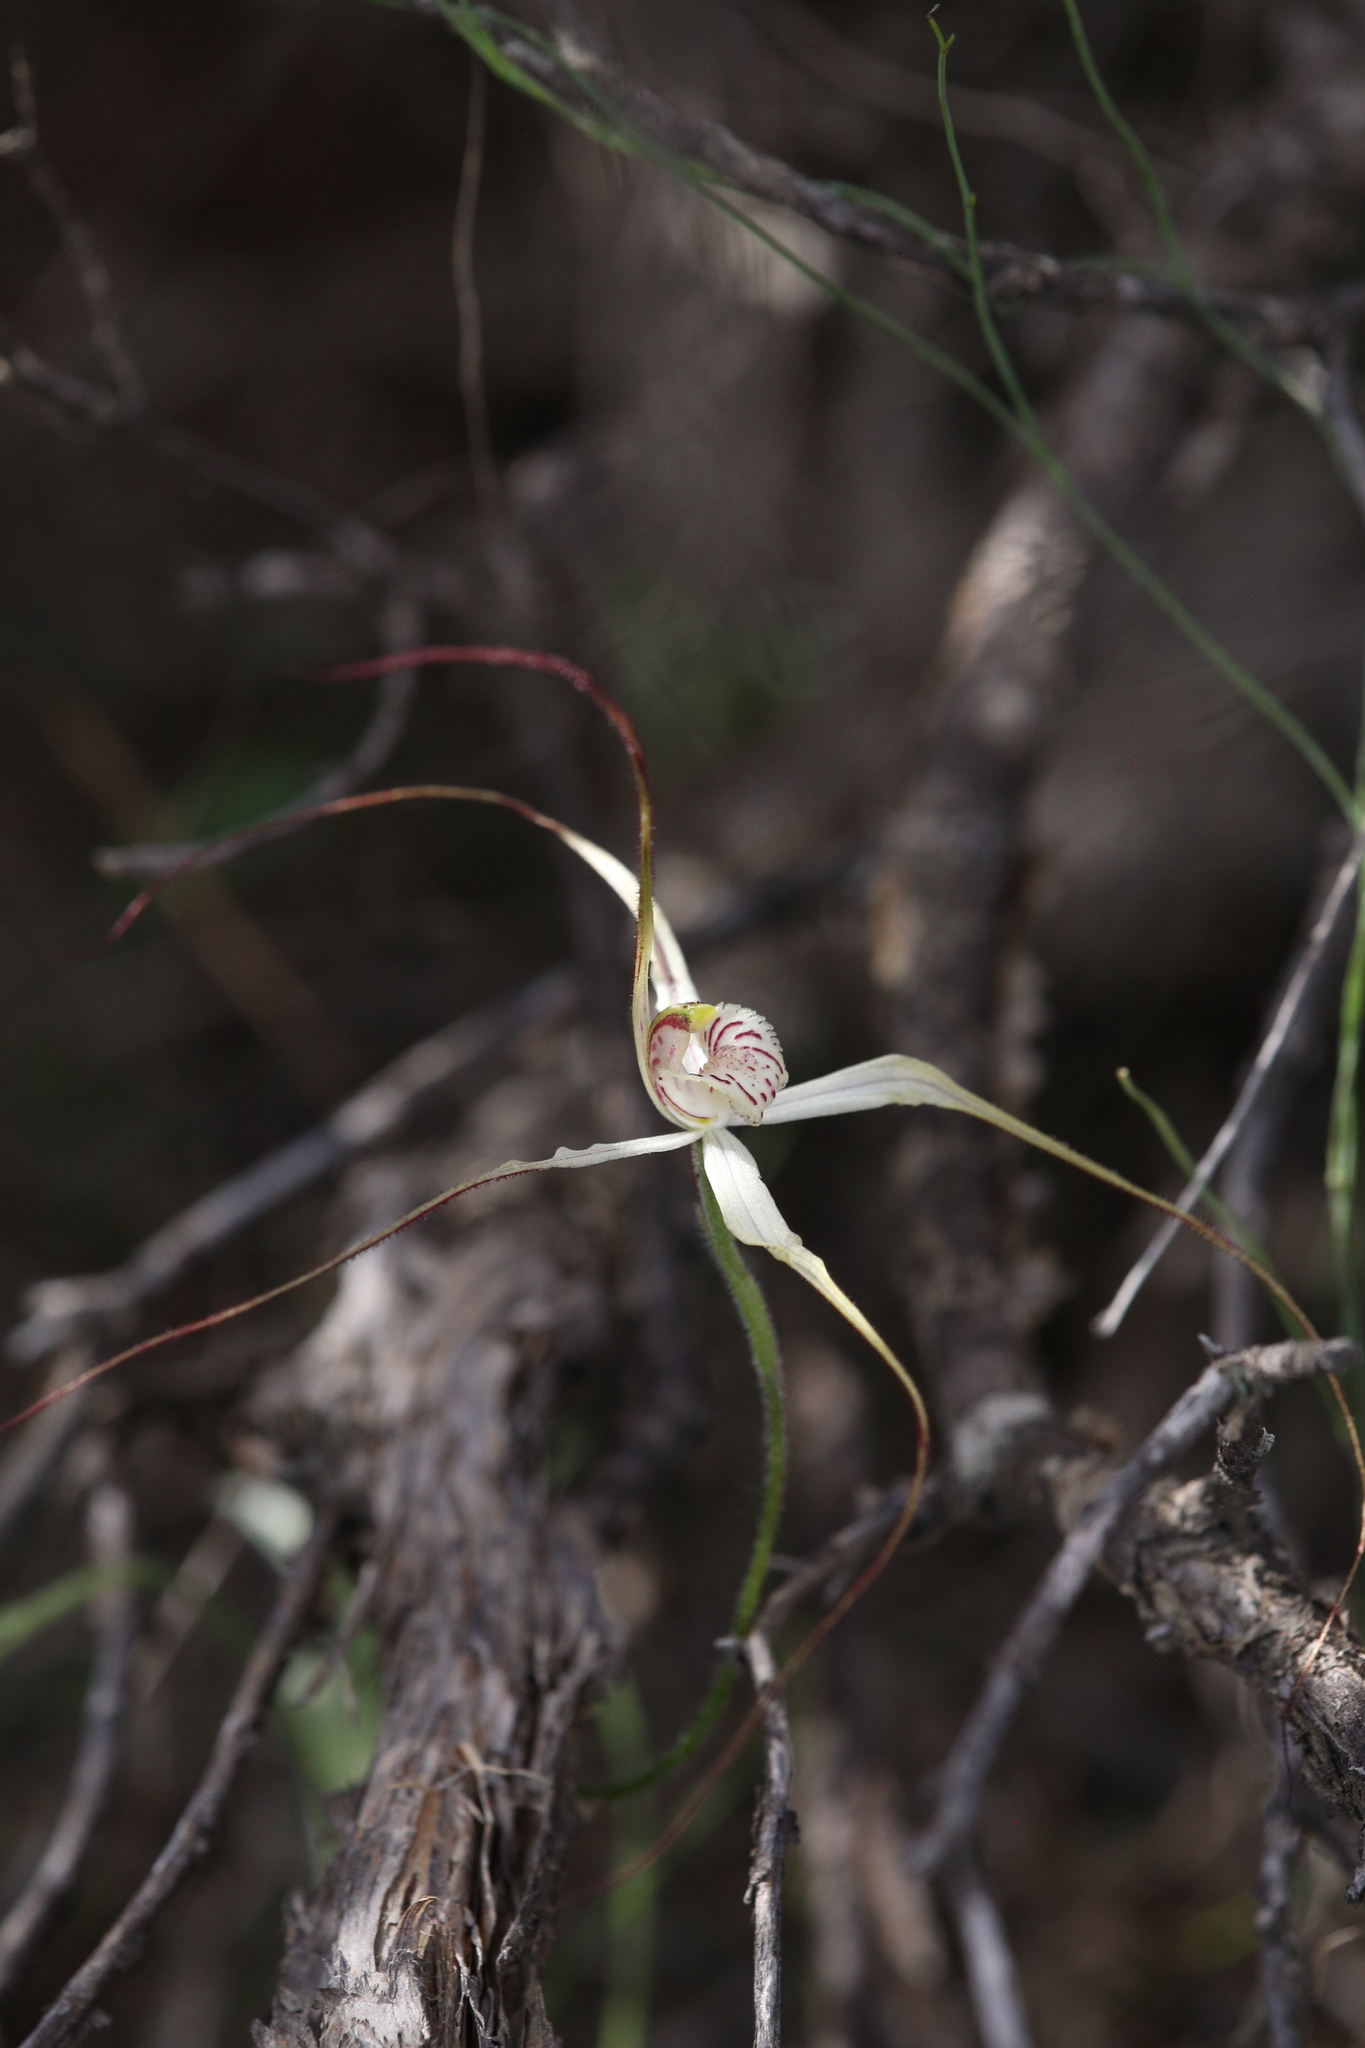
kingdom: Plantae
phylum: Tracheophyta
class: Liliopsida
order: Asparagales
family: Orchidaceae
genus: Caladenia
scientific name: Caladenia nobilis
